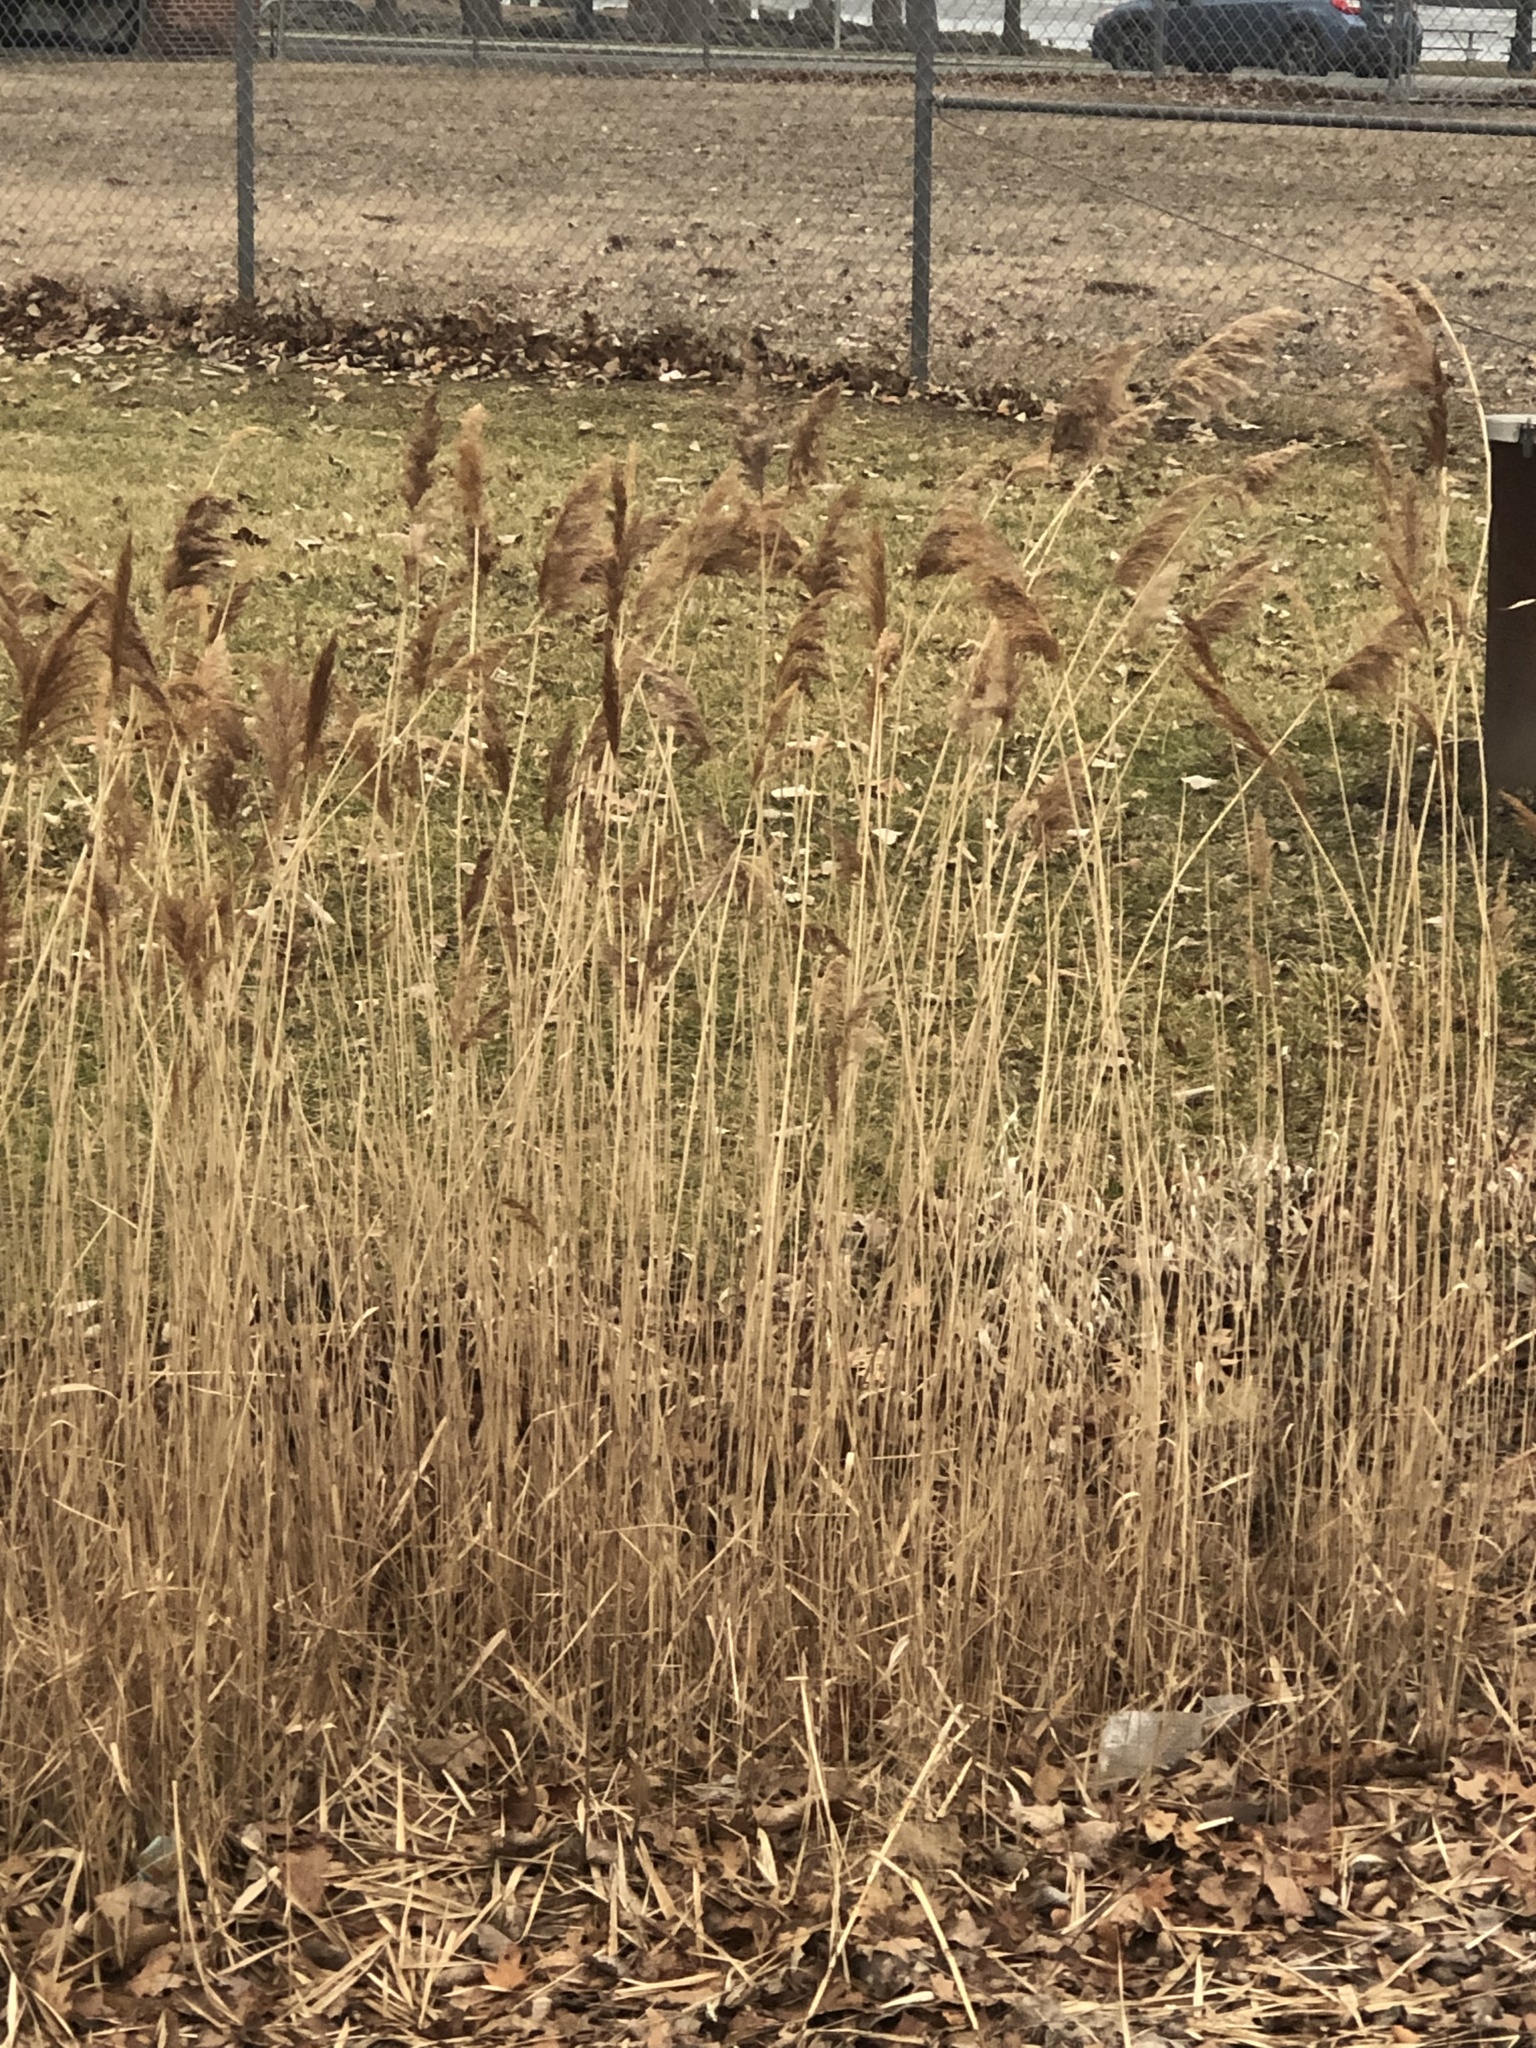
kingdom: Plantae
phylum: Tracheophyta
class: Liliopsida
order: Poales
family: Poaceae
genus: Phragmites
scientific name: Phragmites australis
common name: Common reed
